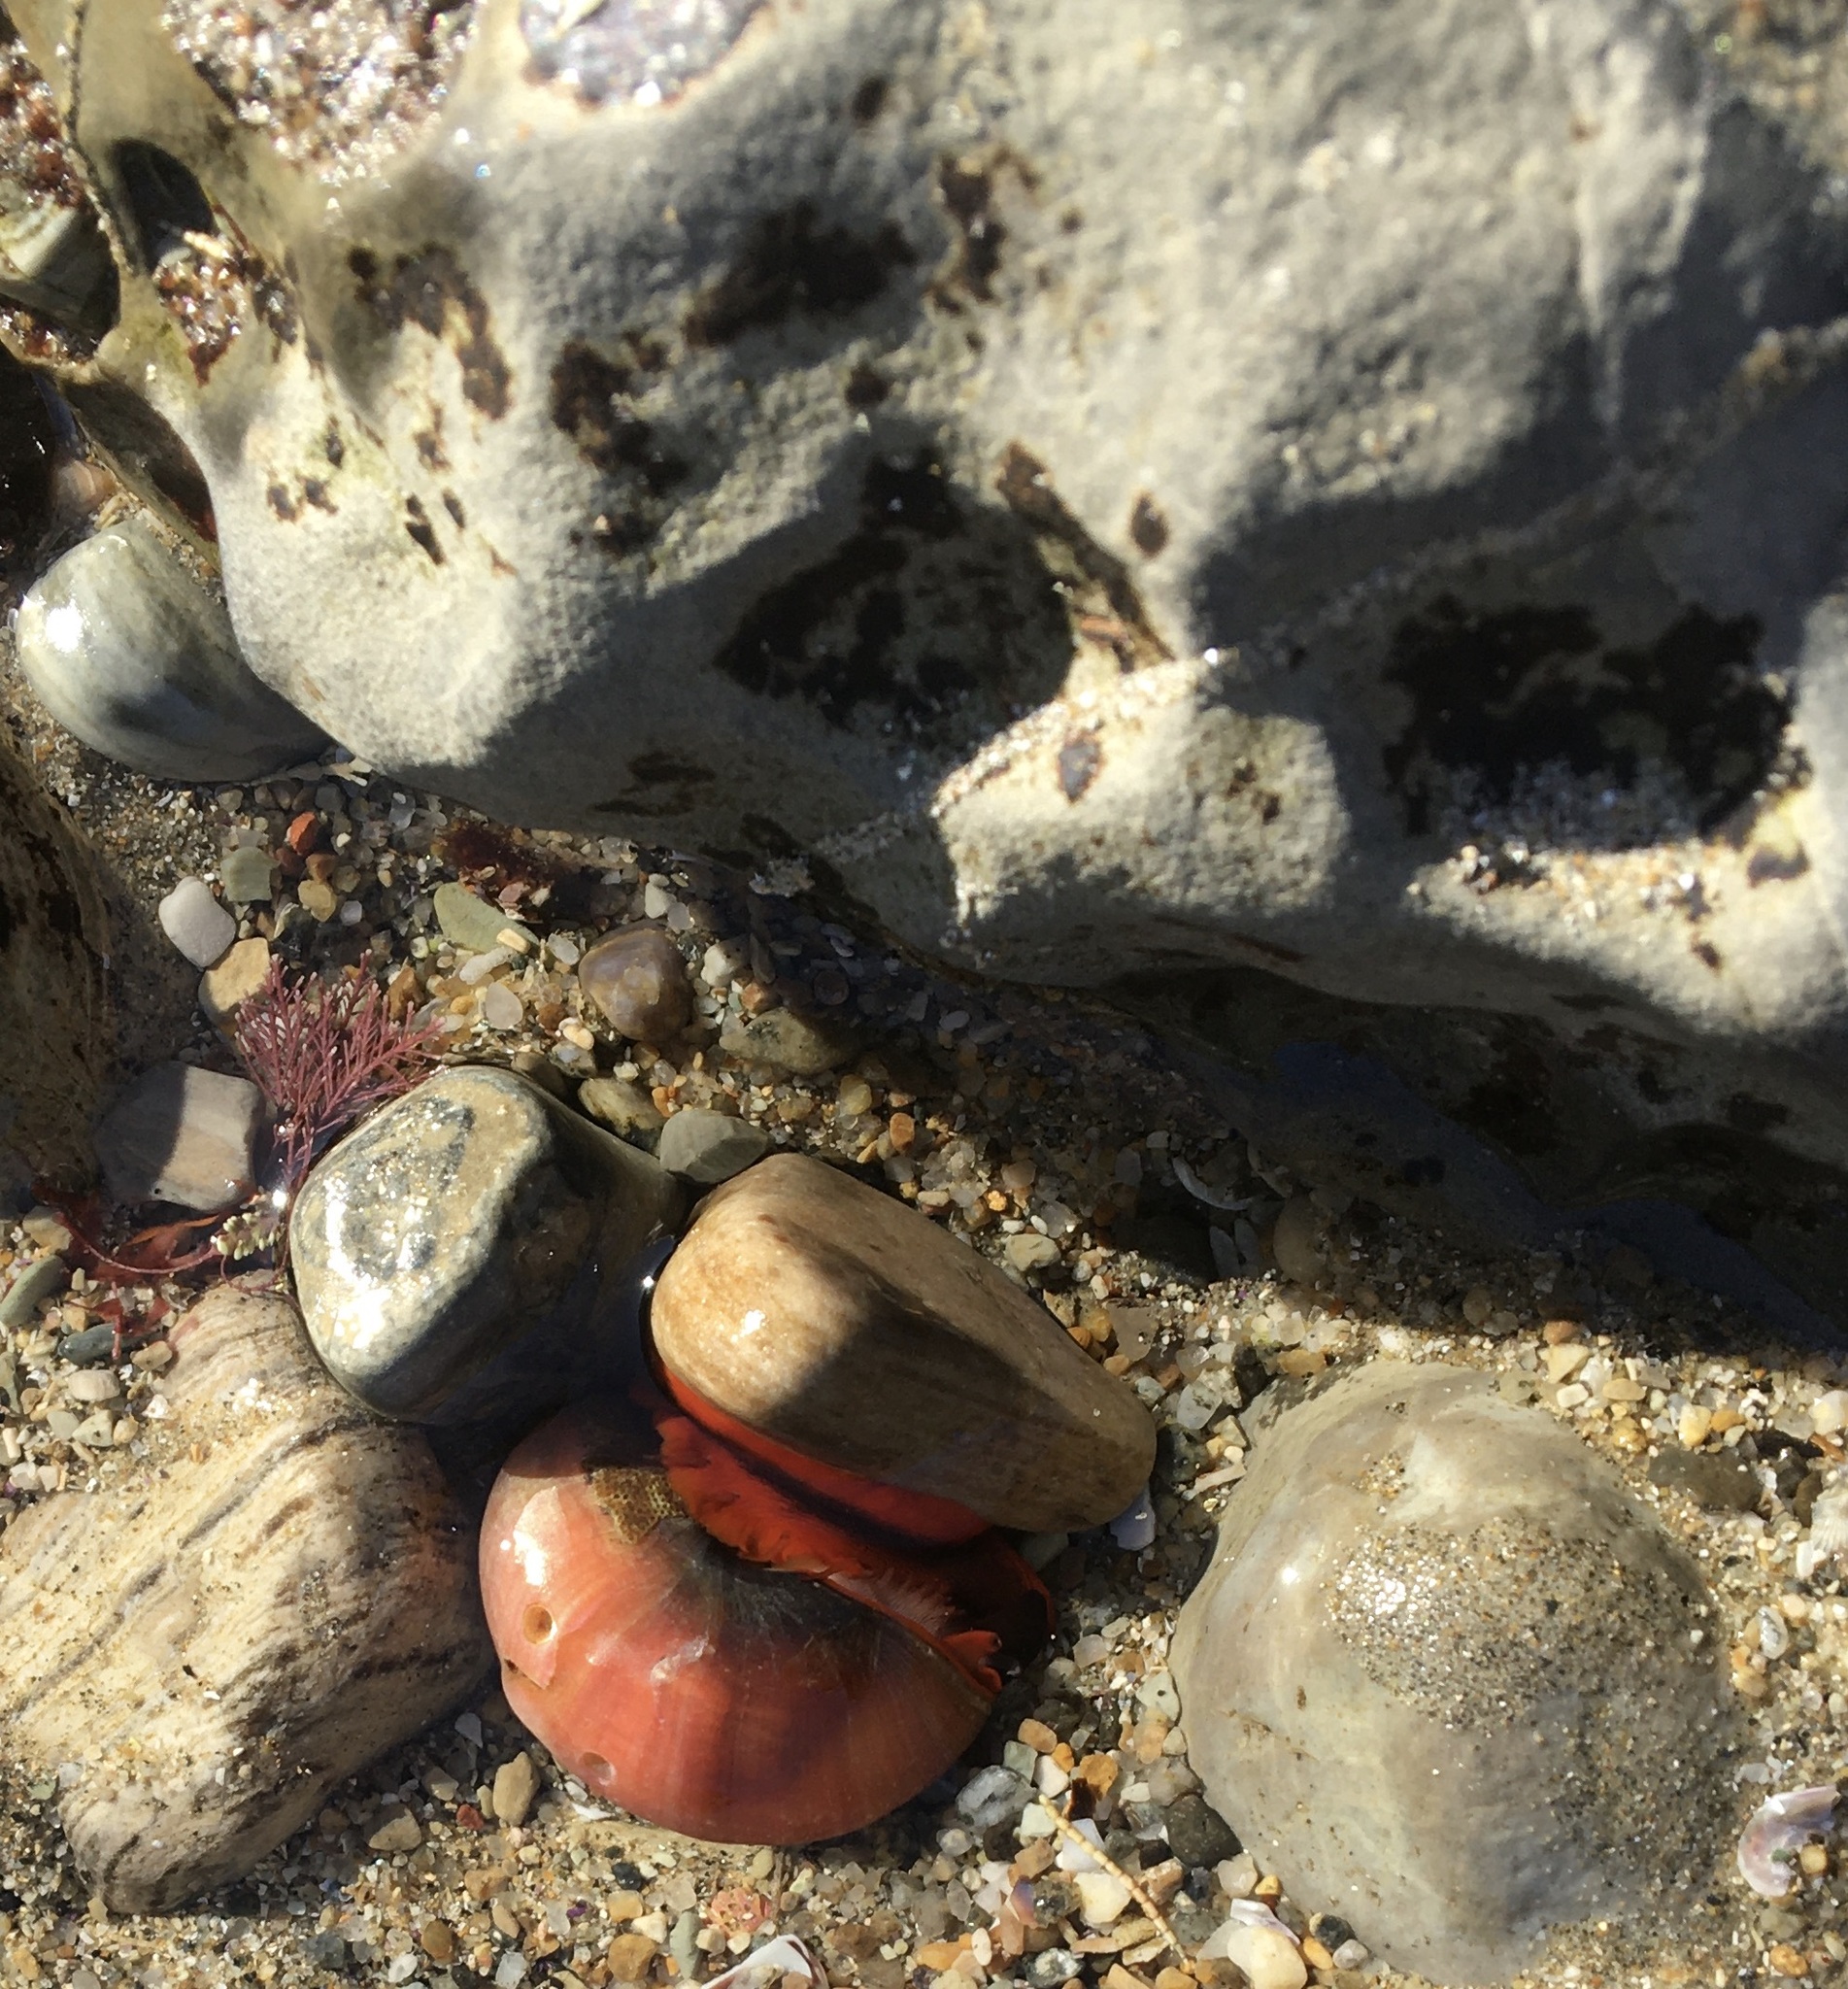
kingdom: Animalia
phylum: Mollusca
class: Gastropoda
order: Trochida
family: Tegulidae
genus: Norrisia
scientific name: Norrisia norrisii
